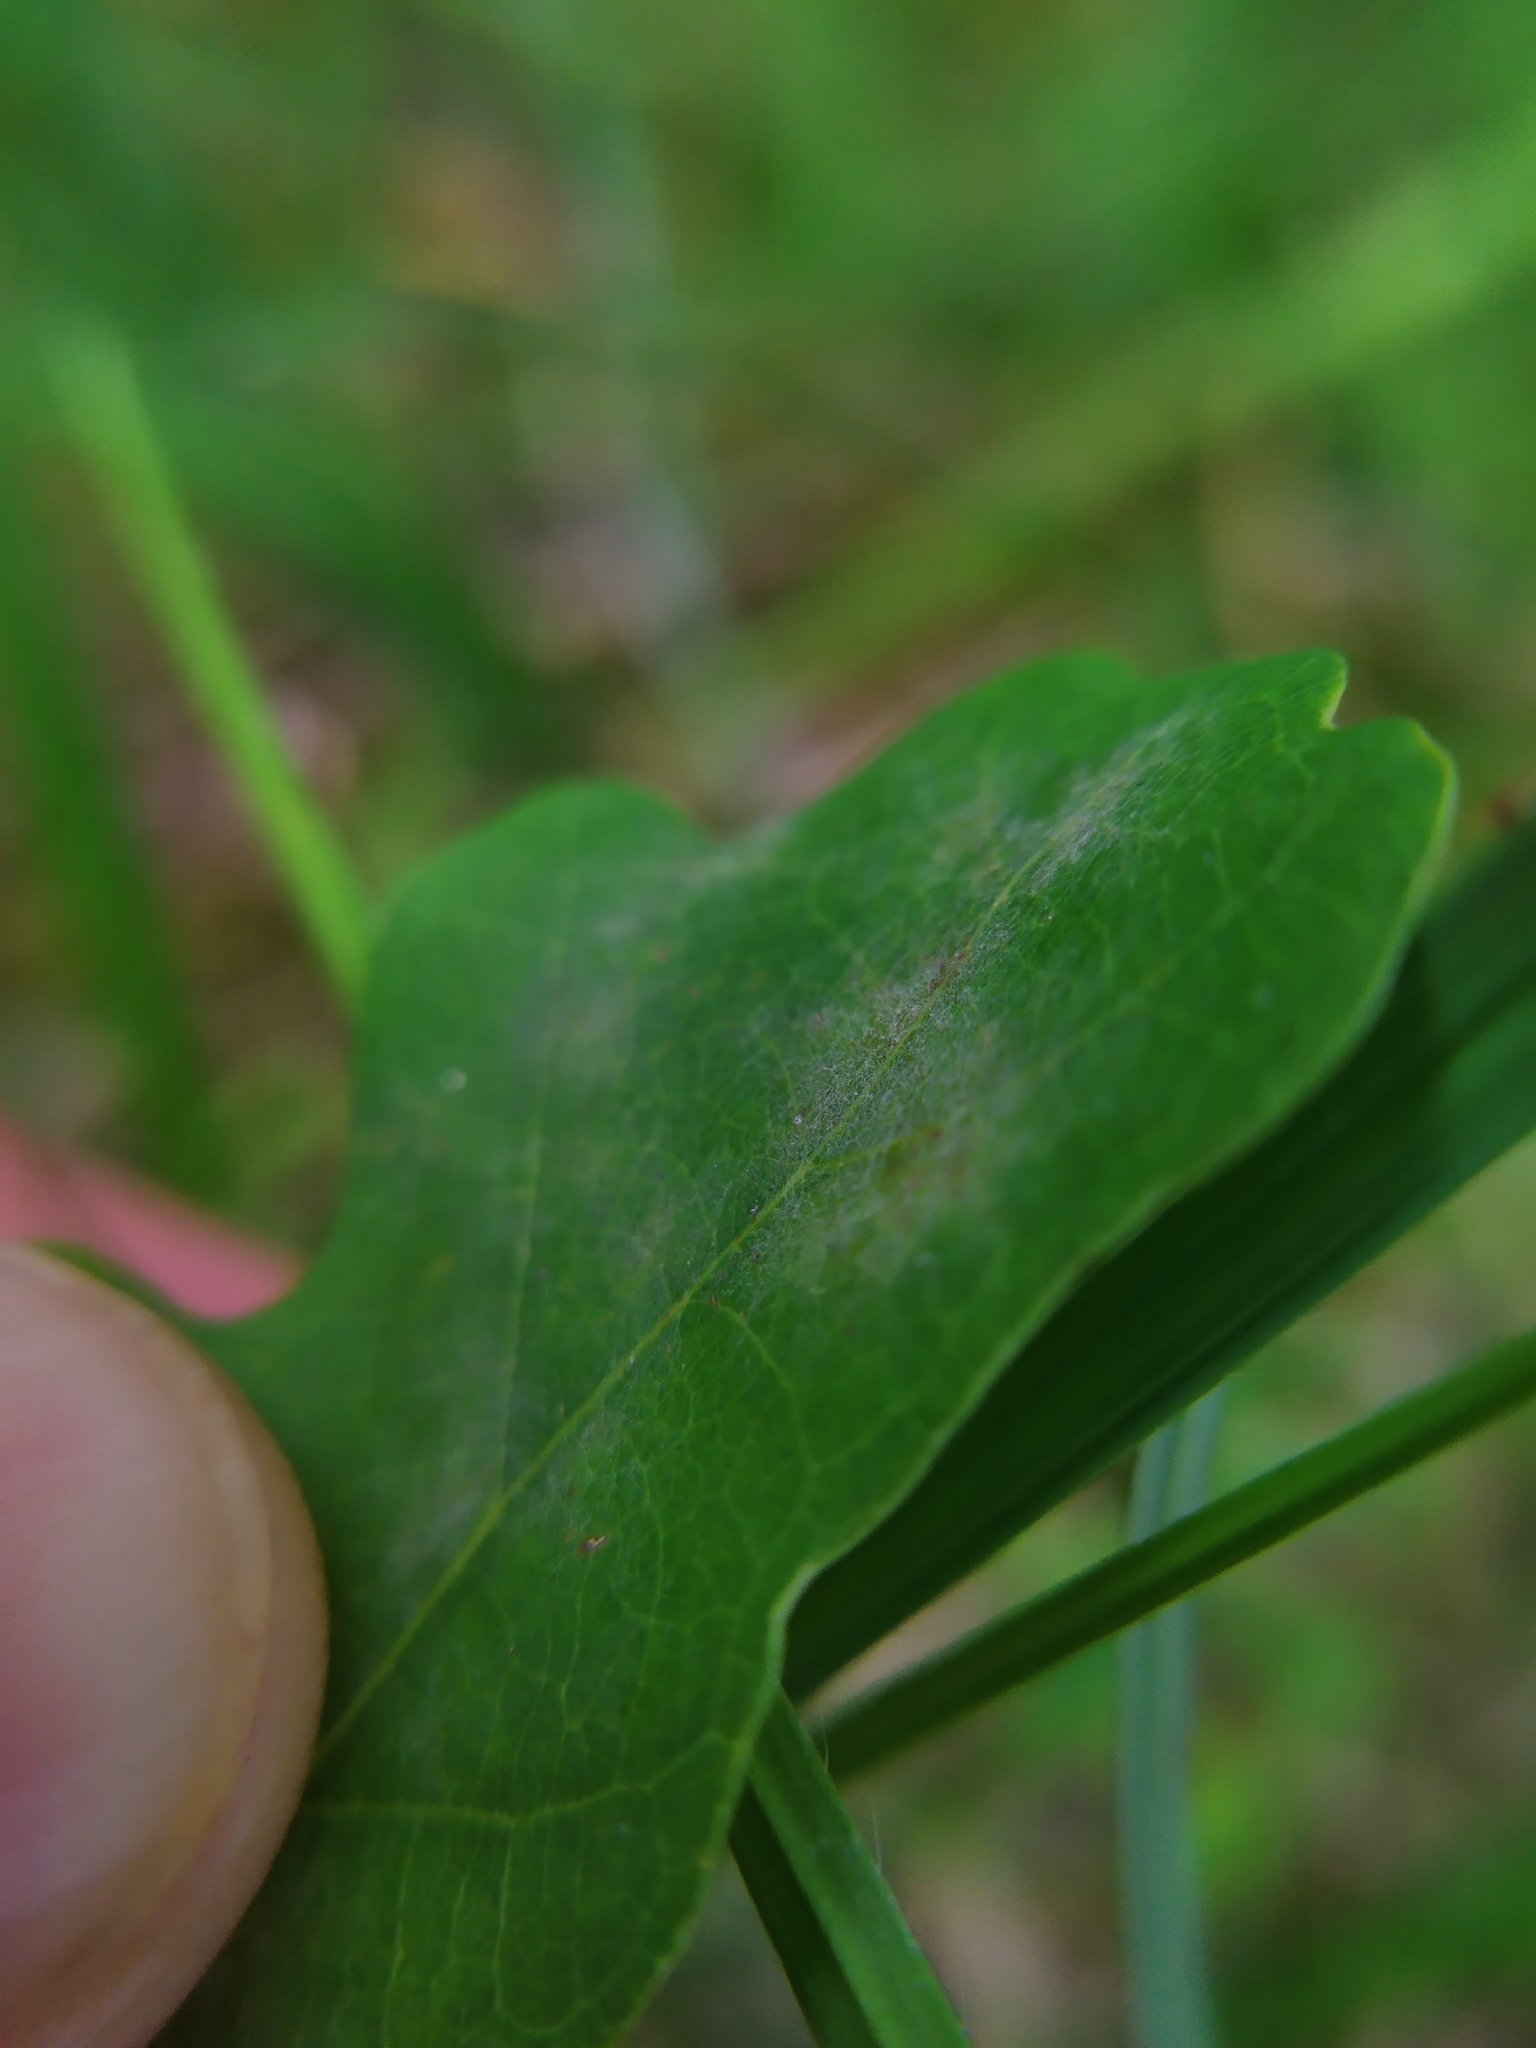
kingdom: Fungi
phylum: Ascomycota
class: Leotiomycetes
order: Helotiales
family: Erysiphaceae
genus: Erysiphe
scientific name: Erysiphe
